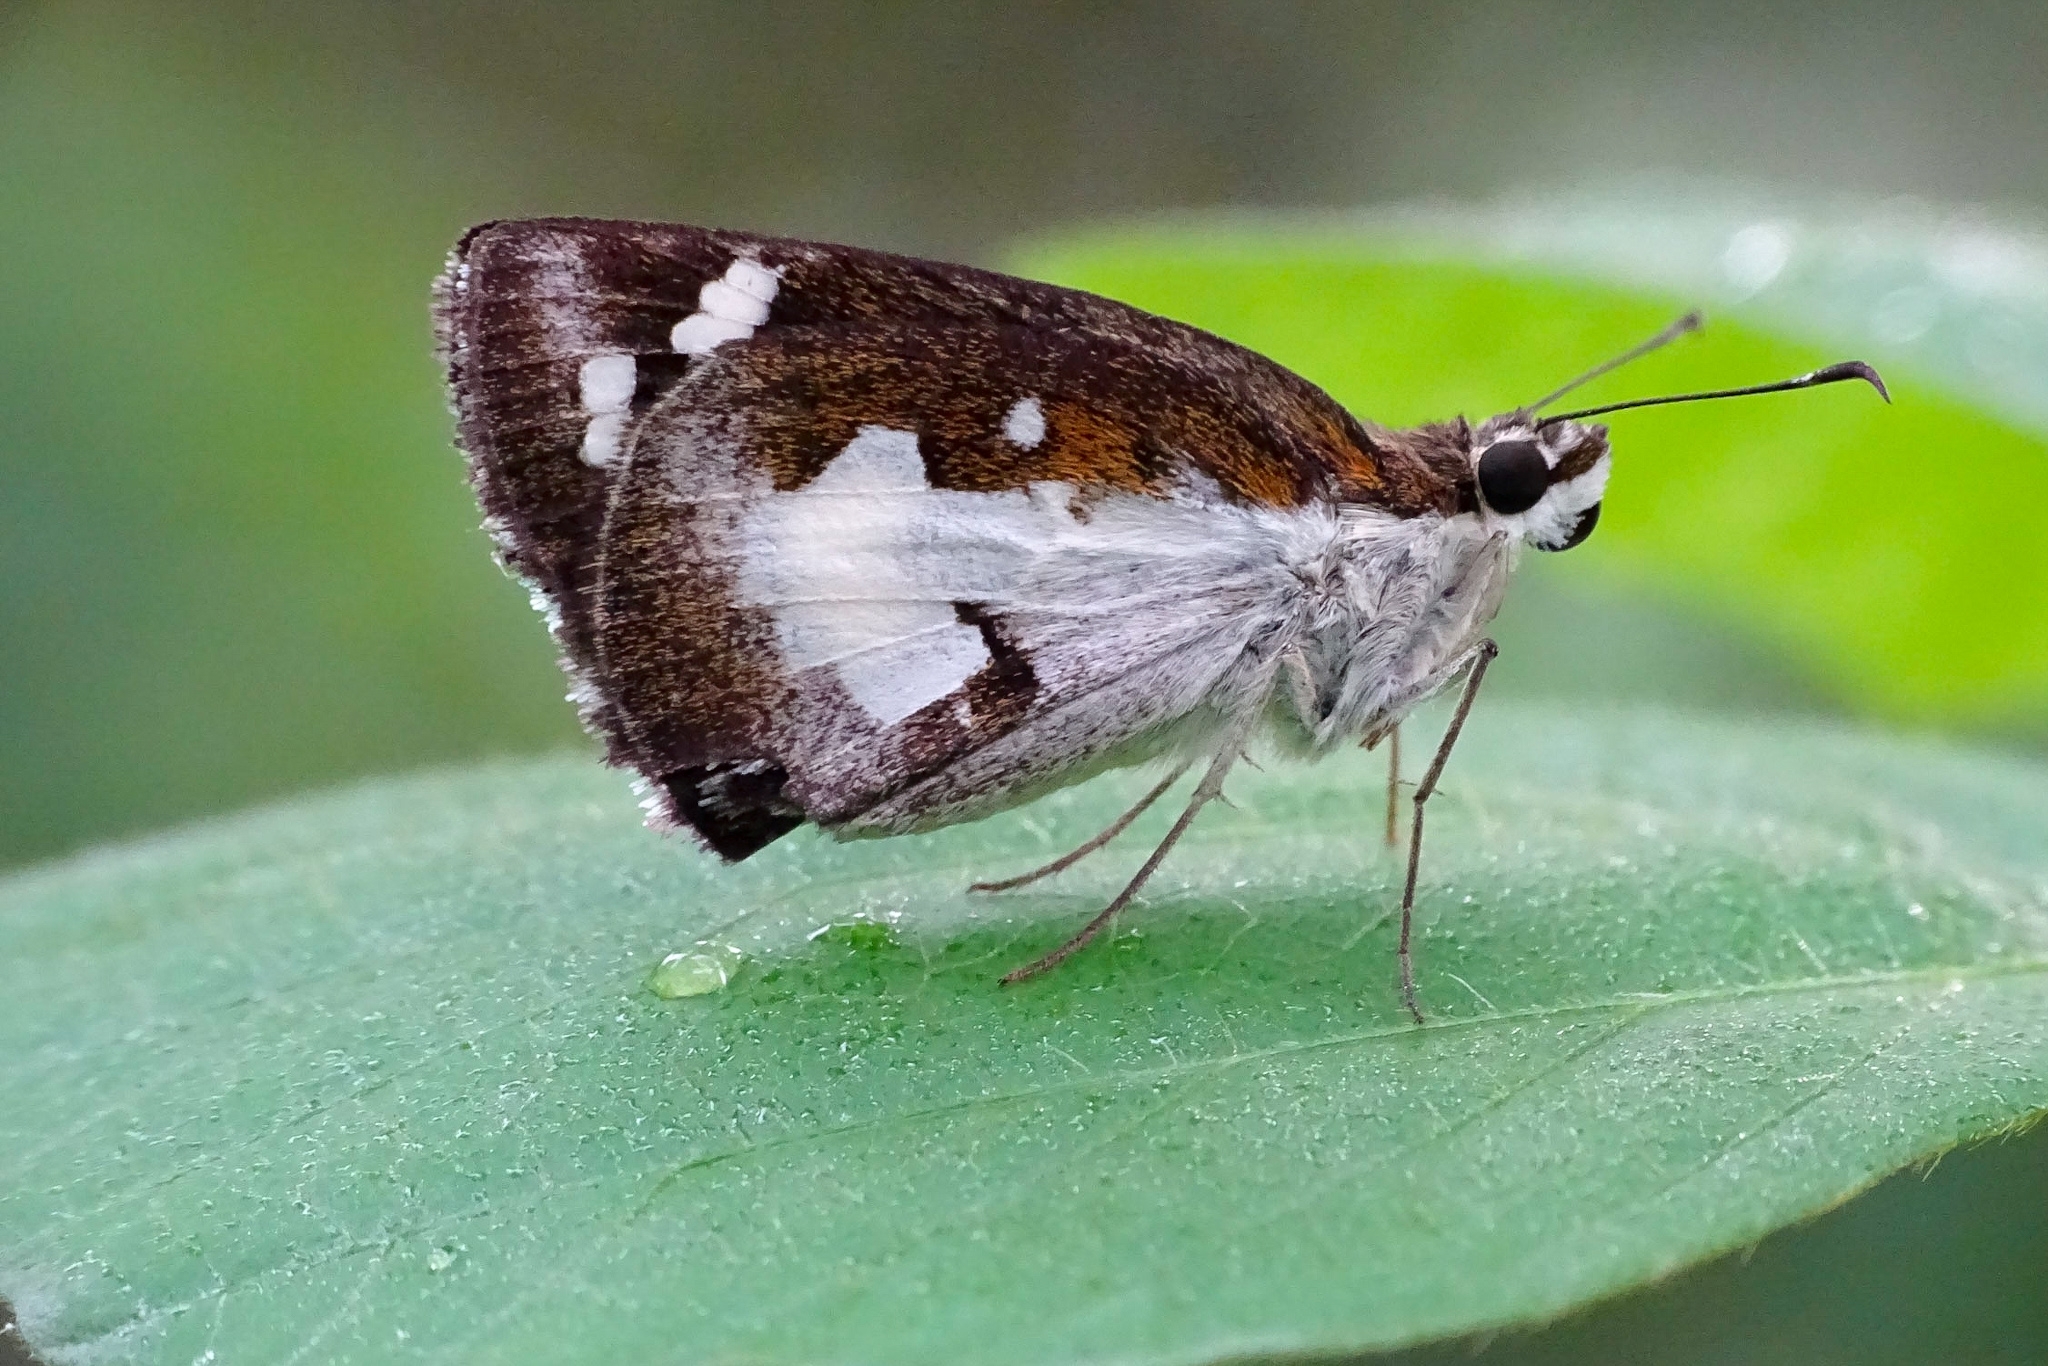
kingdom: Animalia
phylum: Arthropoda
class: Insecta
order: Lepidoptera
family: Hesperiidae
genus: Udaspes
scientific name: Udaspes folus
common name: Grass demon
